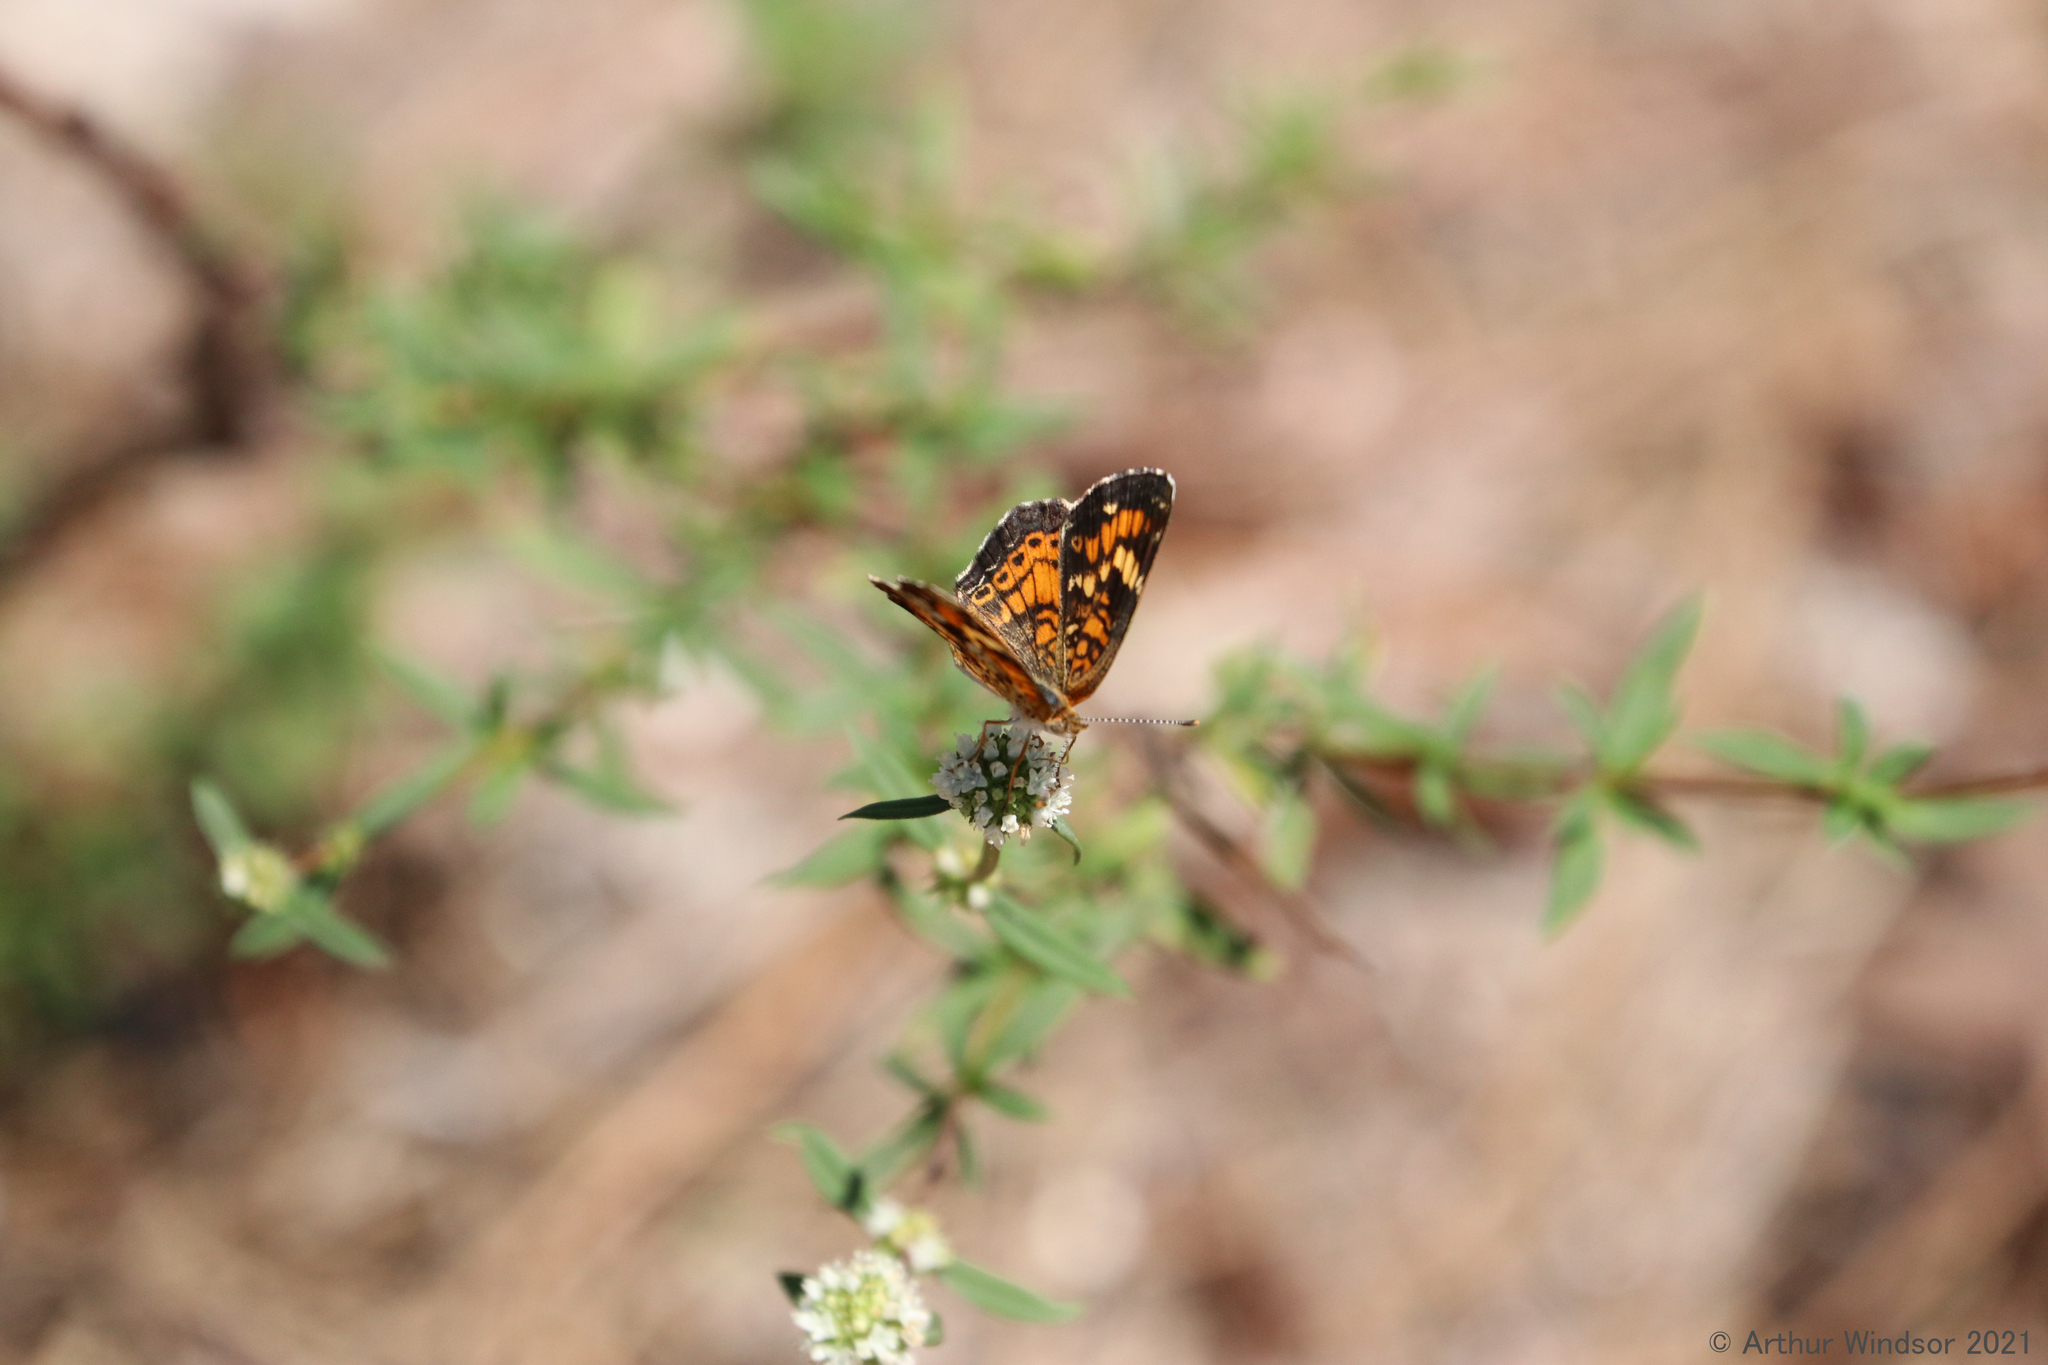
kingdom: Animalia
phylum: Arthropoda
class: Insecta
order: Lepidoptera
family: Nymphalidae
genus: Phyciodes
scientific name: Phyciodes phaon
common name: Phaon crescent
